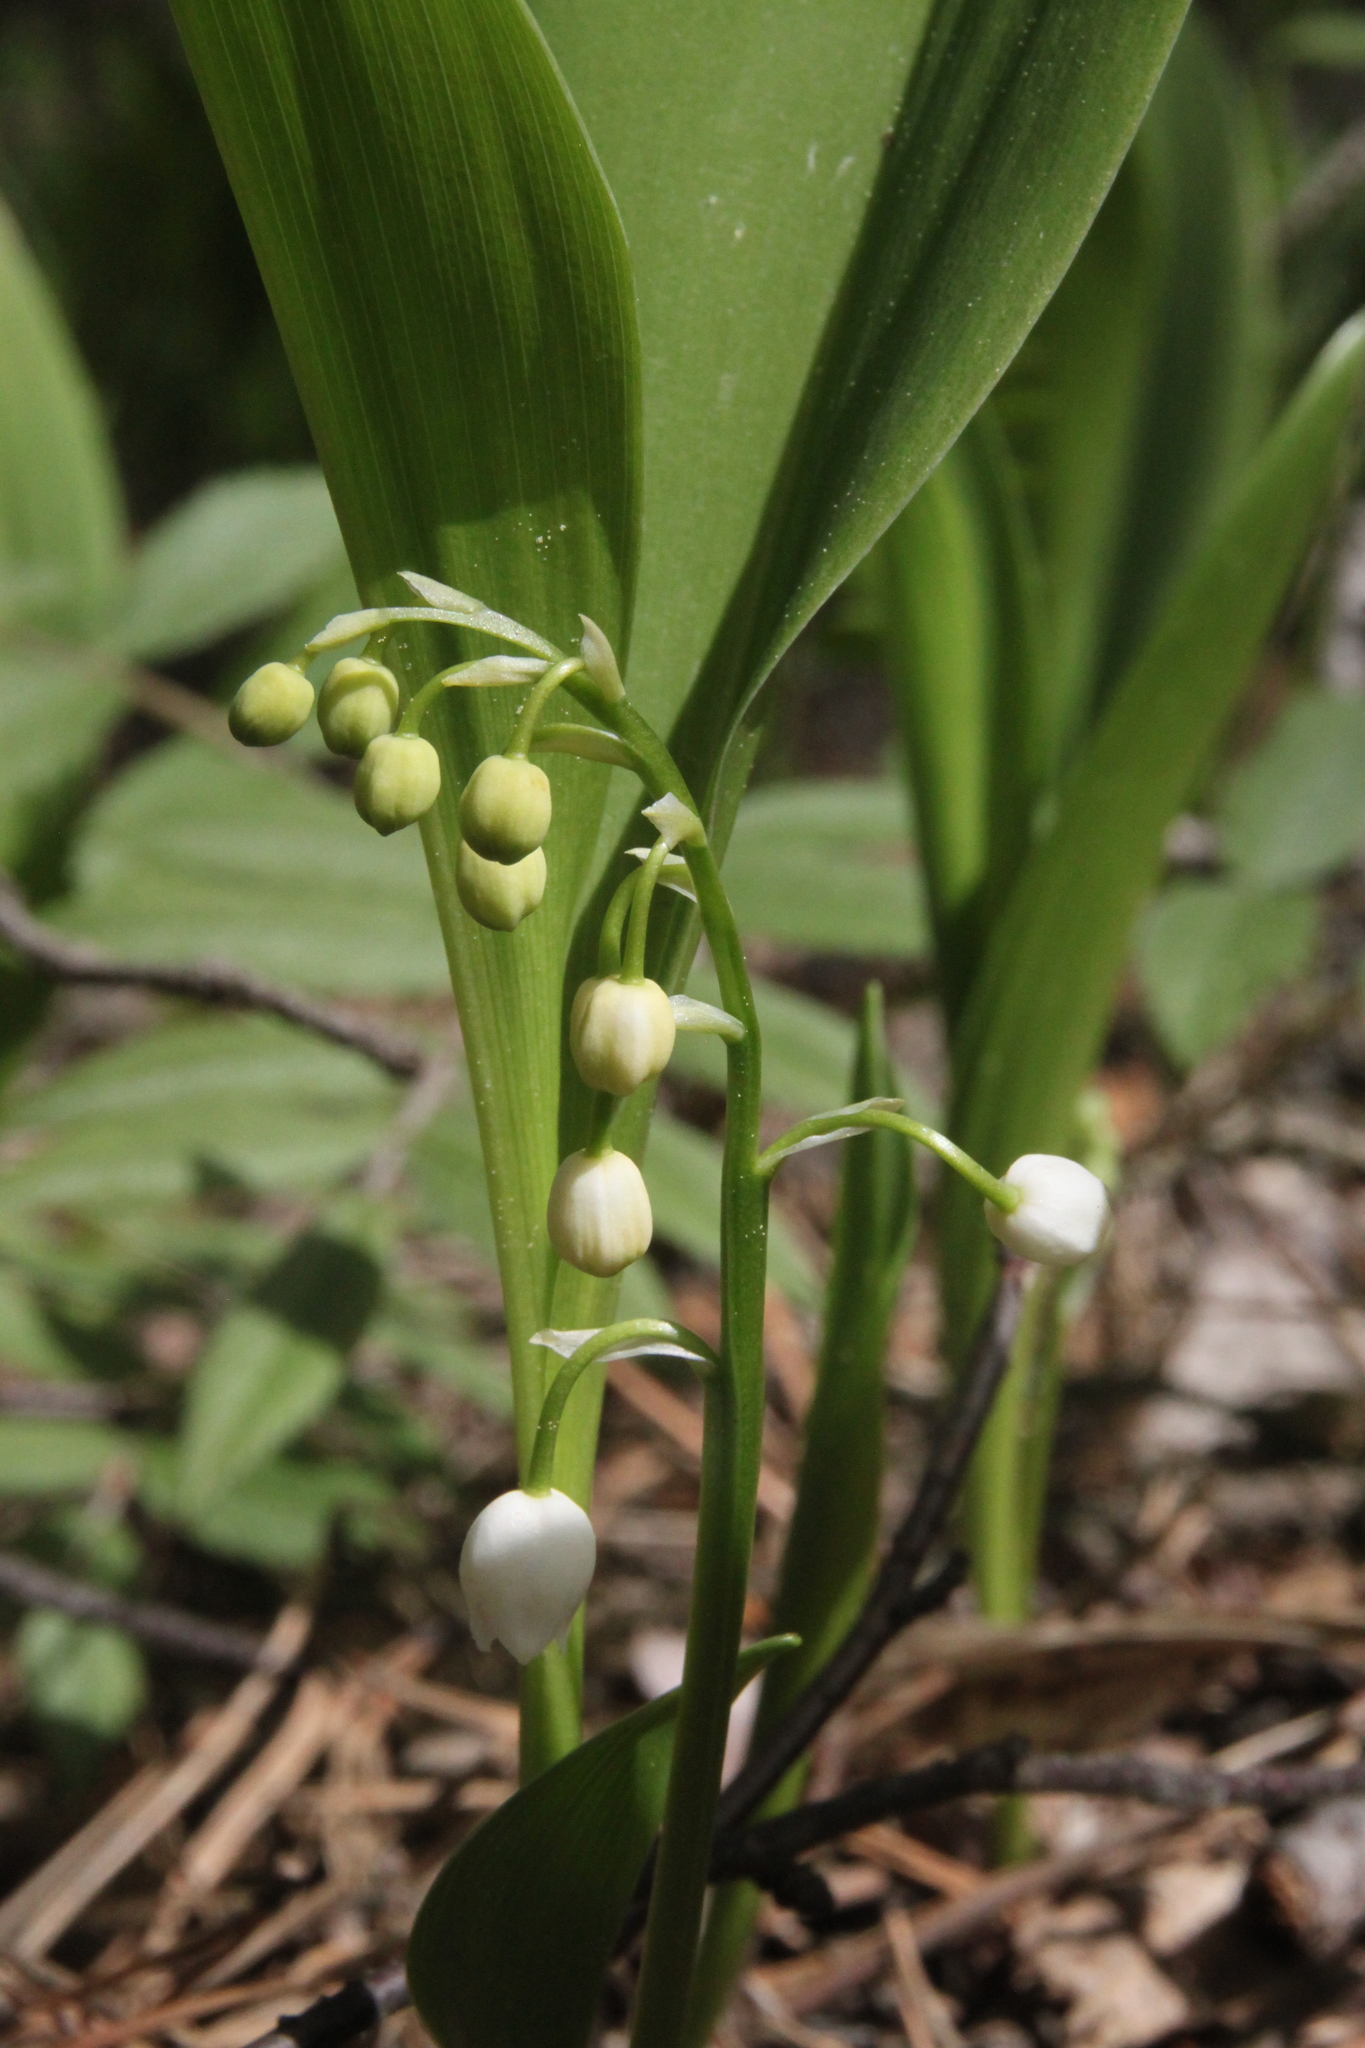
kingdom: Plantae
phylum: Tracheophyta
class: Liliopsida
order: Asparagales
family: Asparagaceae
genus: Convallaria
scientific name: Convallaria majalis
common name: Lily-of-the-valley
